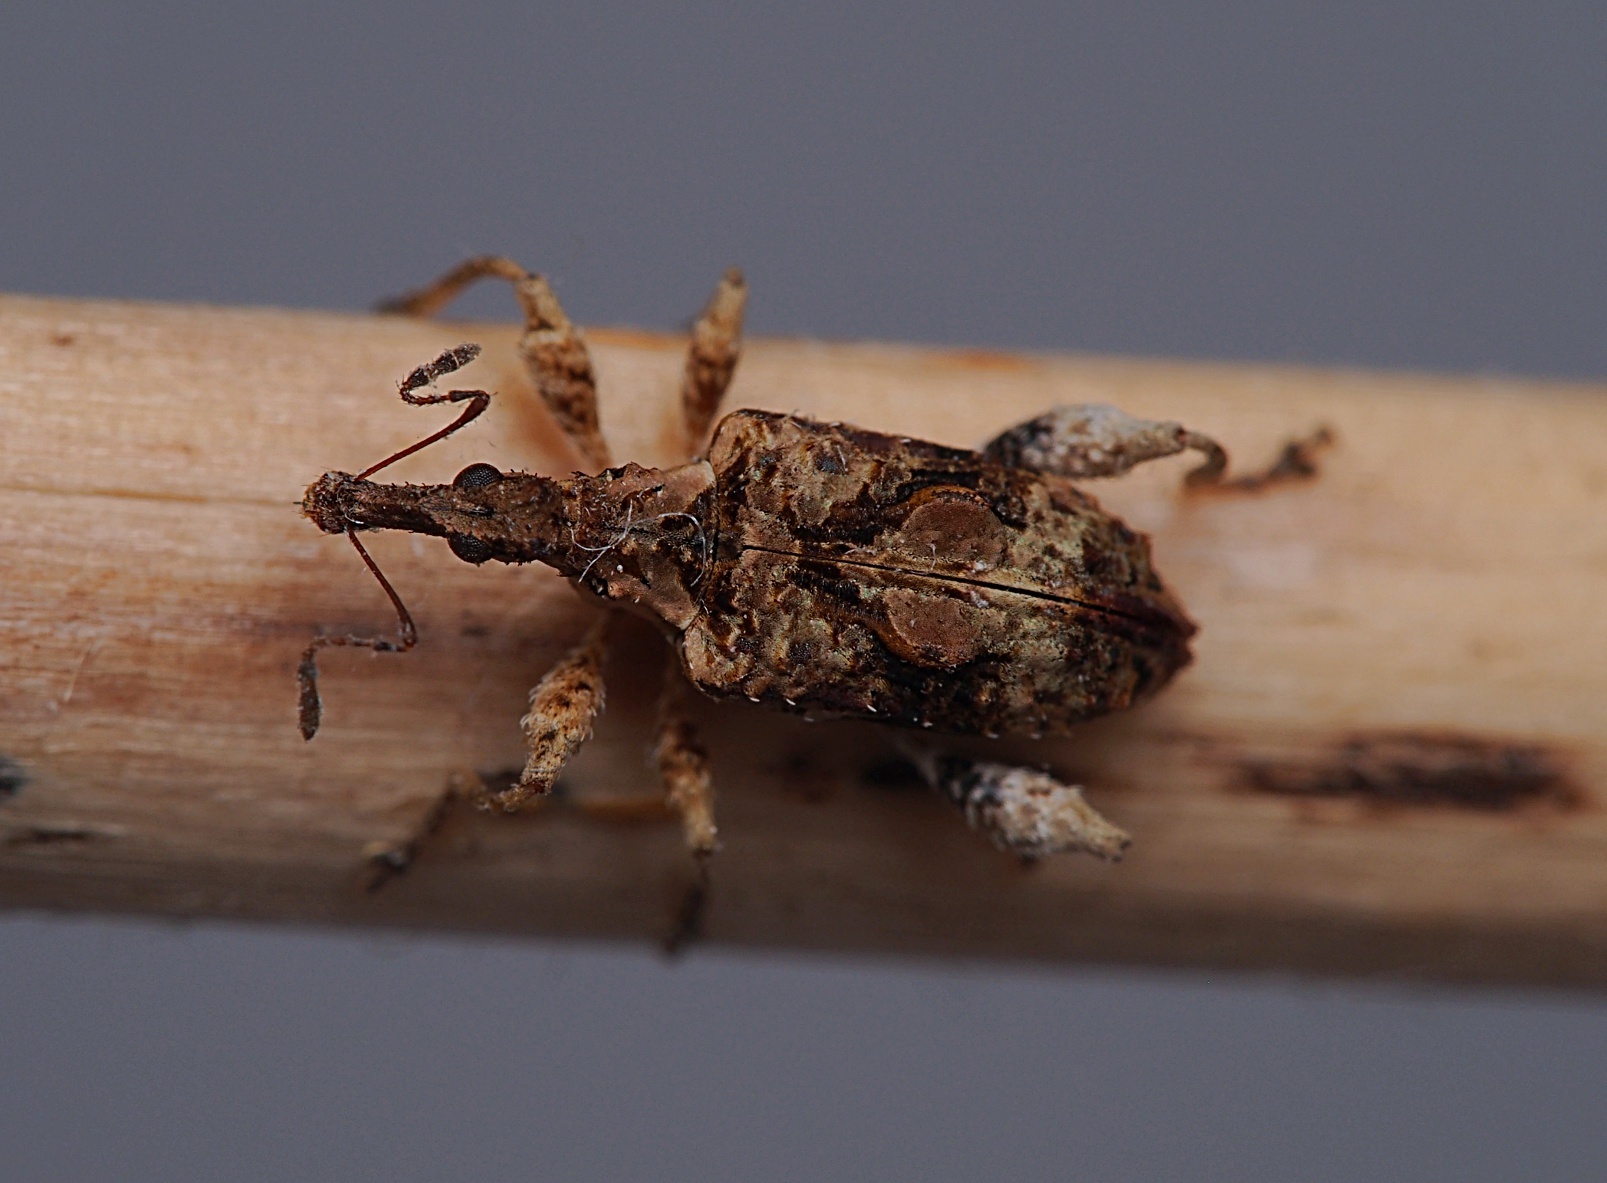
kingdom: Animalia
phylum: Arthropoda
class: Insecta
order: Coleoptera
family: Curculionidae
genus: Stephanorhynchus
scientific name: Stephanorhynchus curvipes
